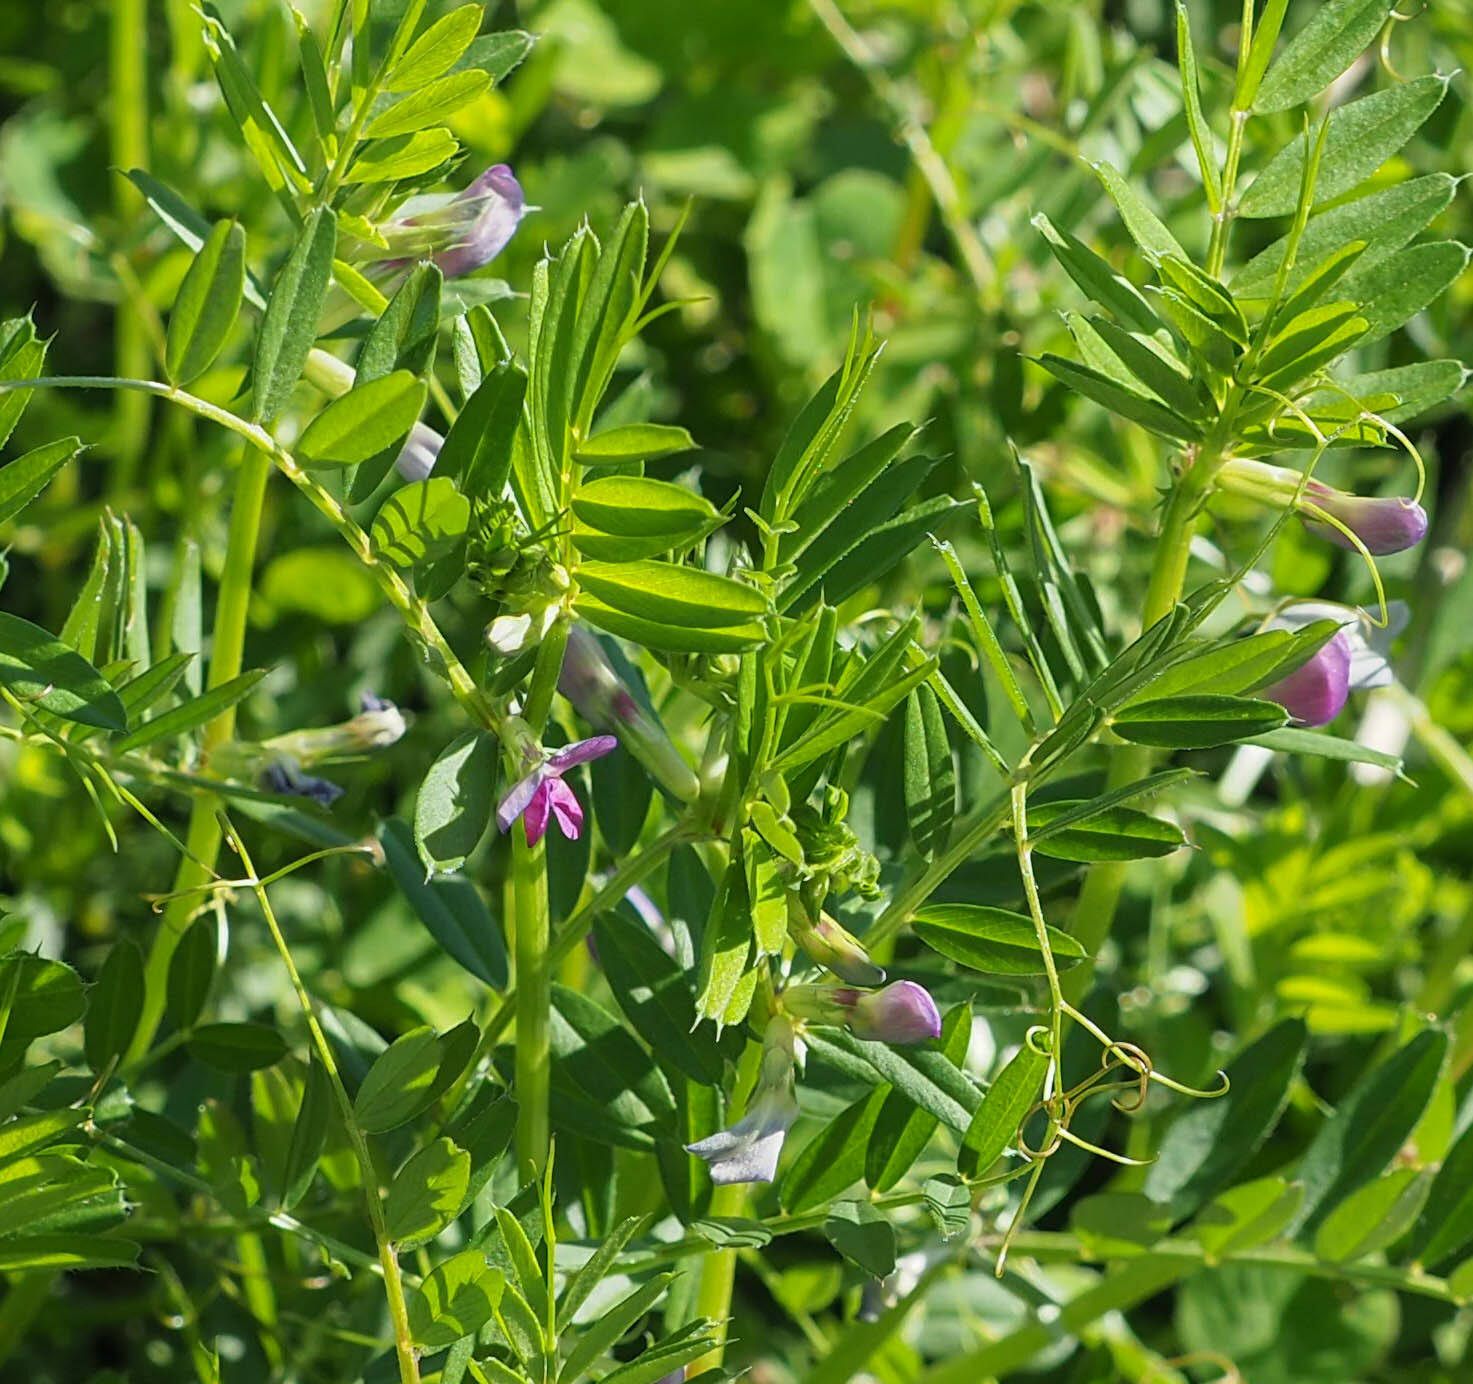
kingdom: Plantae
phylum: Tracheophyta
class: Magnoliopsida
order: Fabales
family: Fabaceae
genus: Vicia
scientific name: Vicia sativa
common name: Garden vetch
